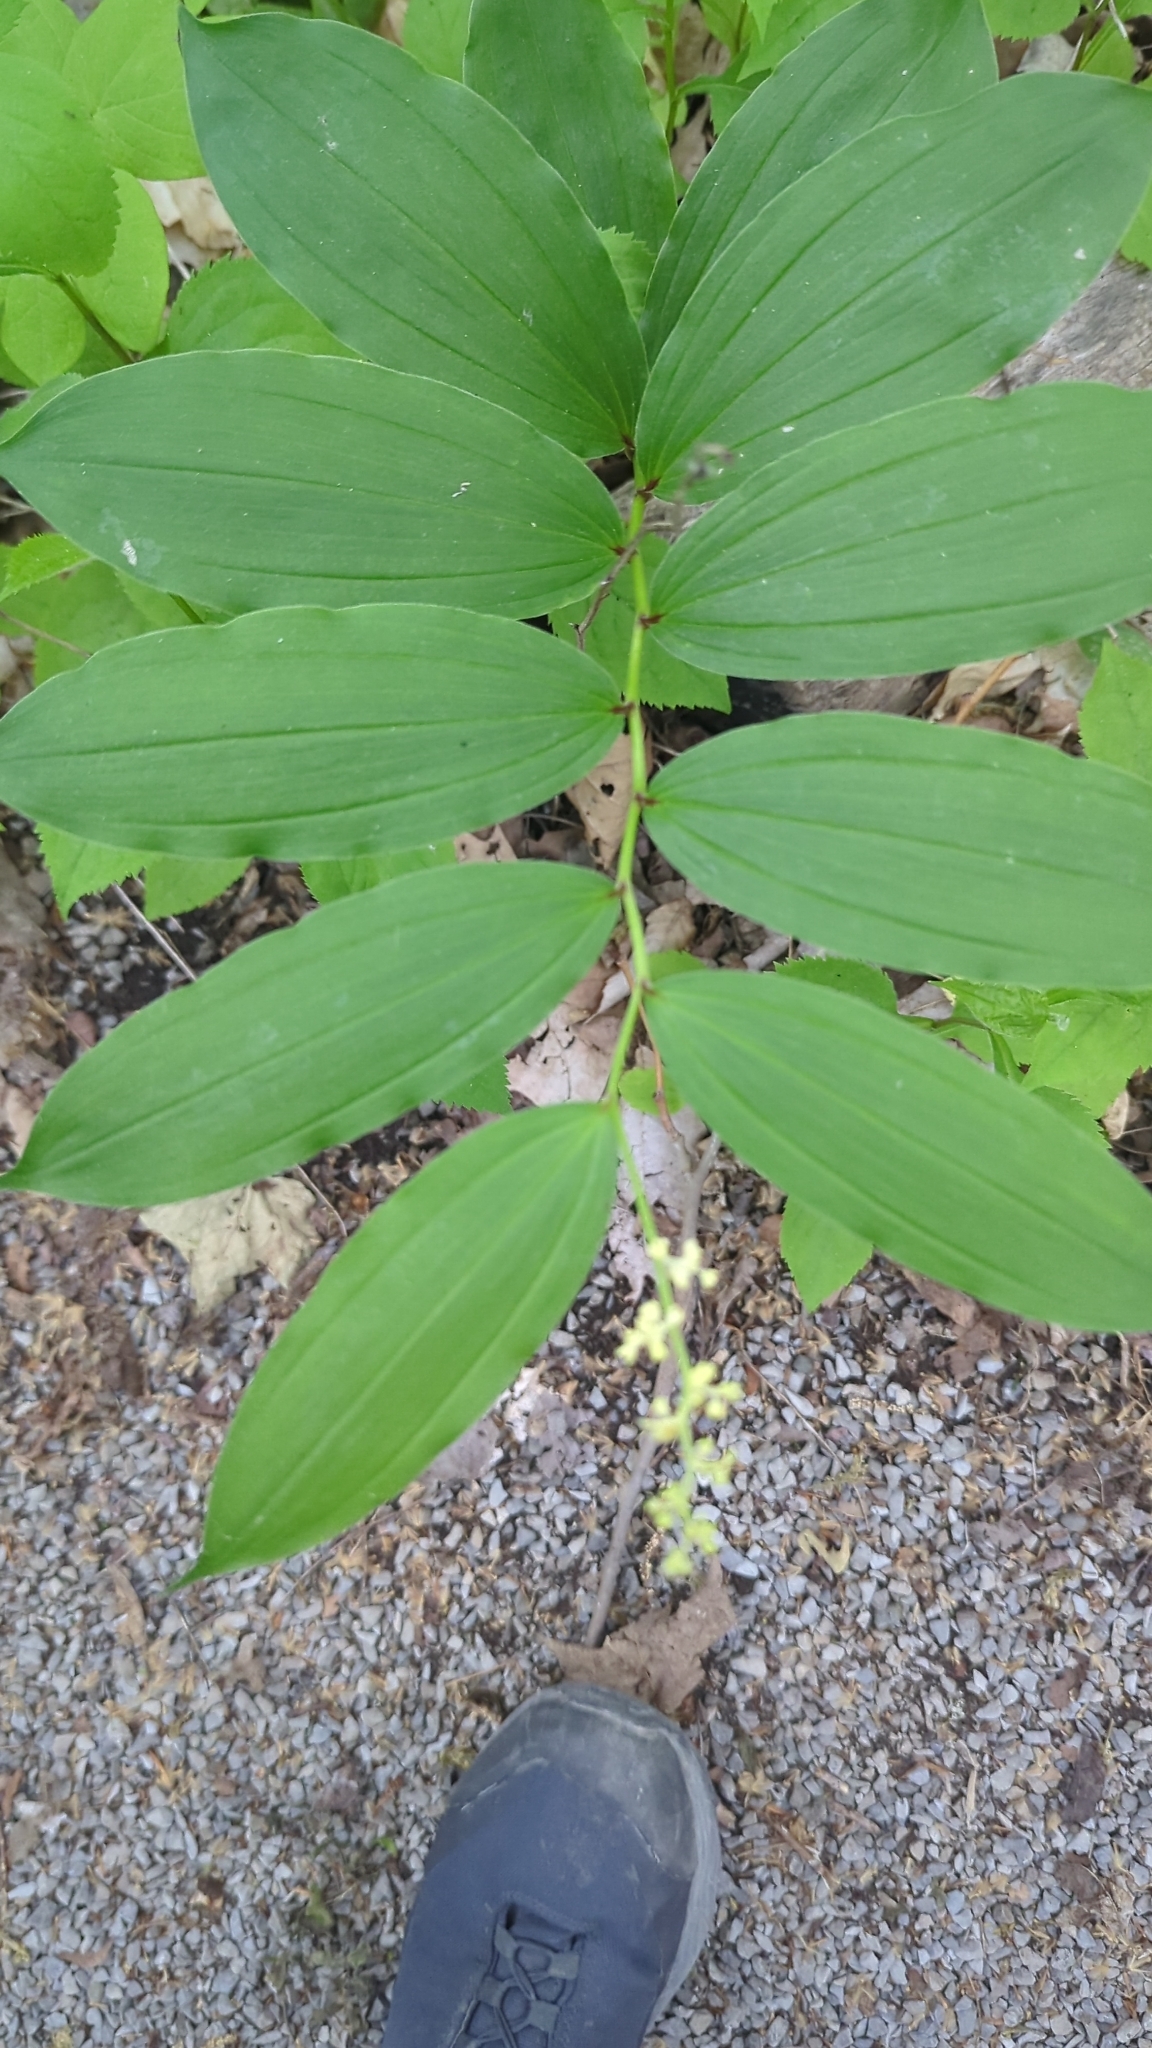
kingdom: Plantae
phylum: Tracheophyta
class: Liliopsida
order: Asparagales
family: Asparagaceae
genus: Maianthemum
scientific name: Maianthemum racemosum
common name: False spikenard
